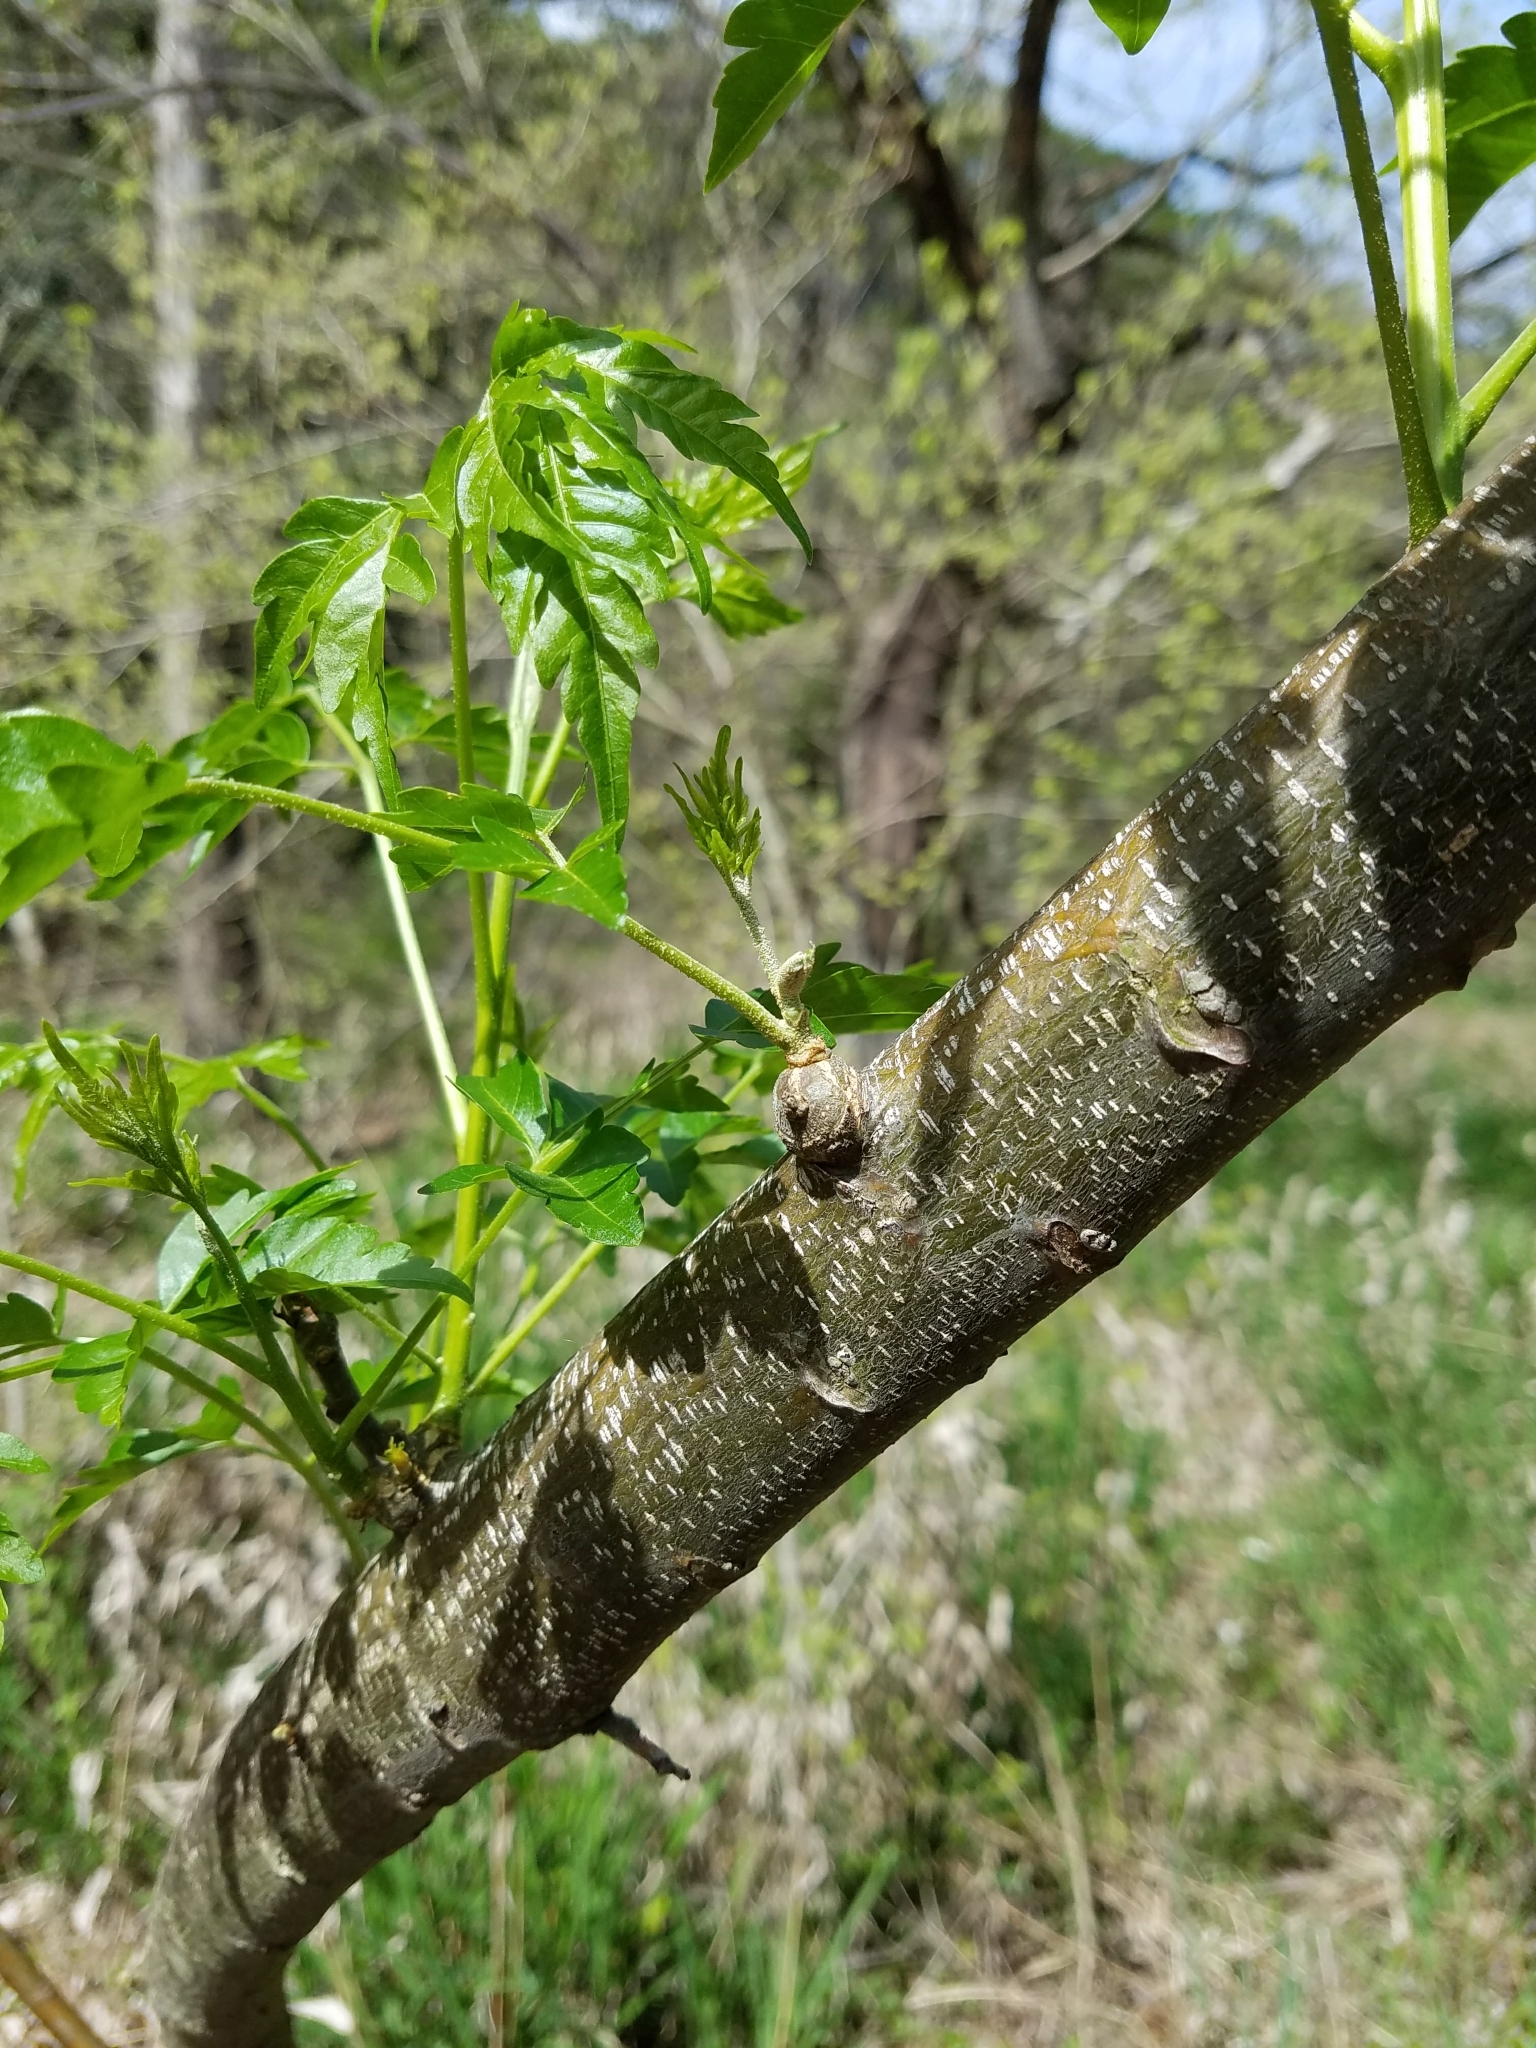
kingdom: Plantae
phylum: Tracheophyta
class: Magnoliopsida
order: Sapindales
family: Meliaceae
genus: Melia
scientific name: Melia azedarach
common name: Chinaberrytree
